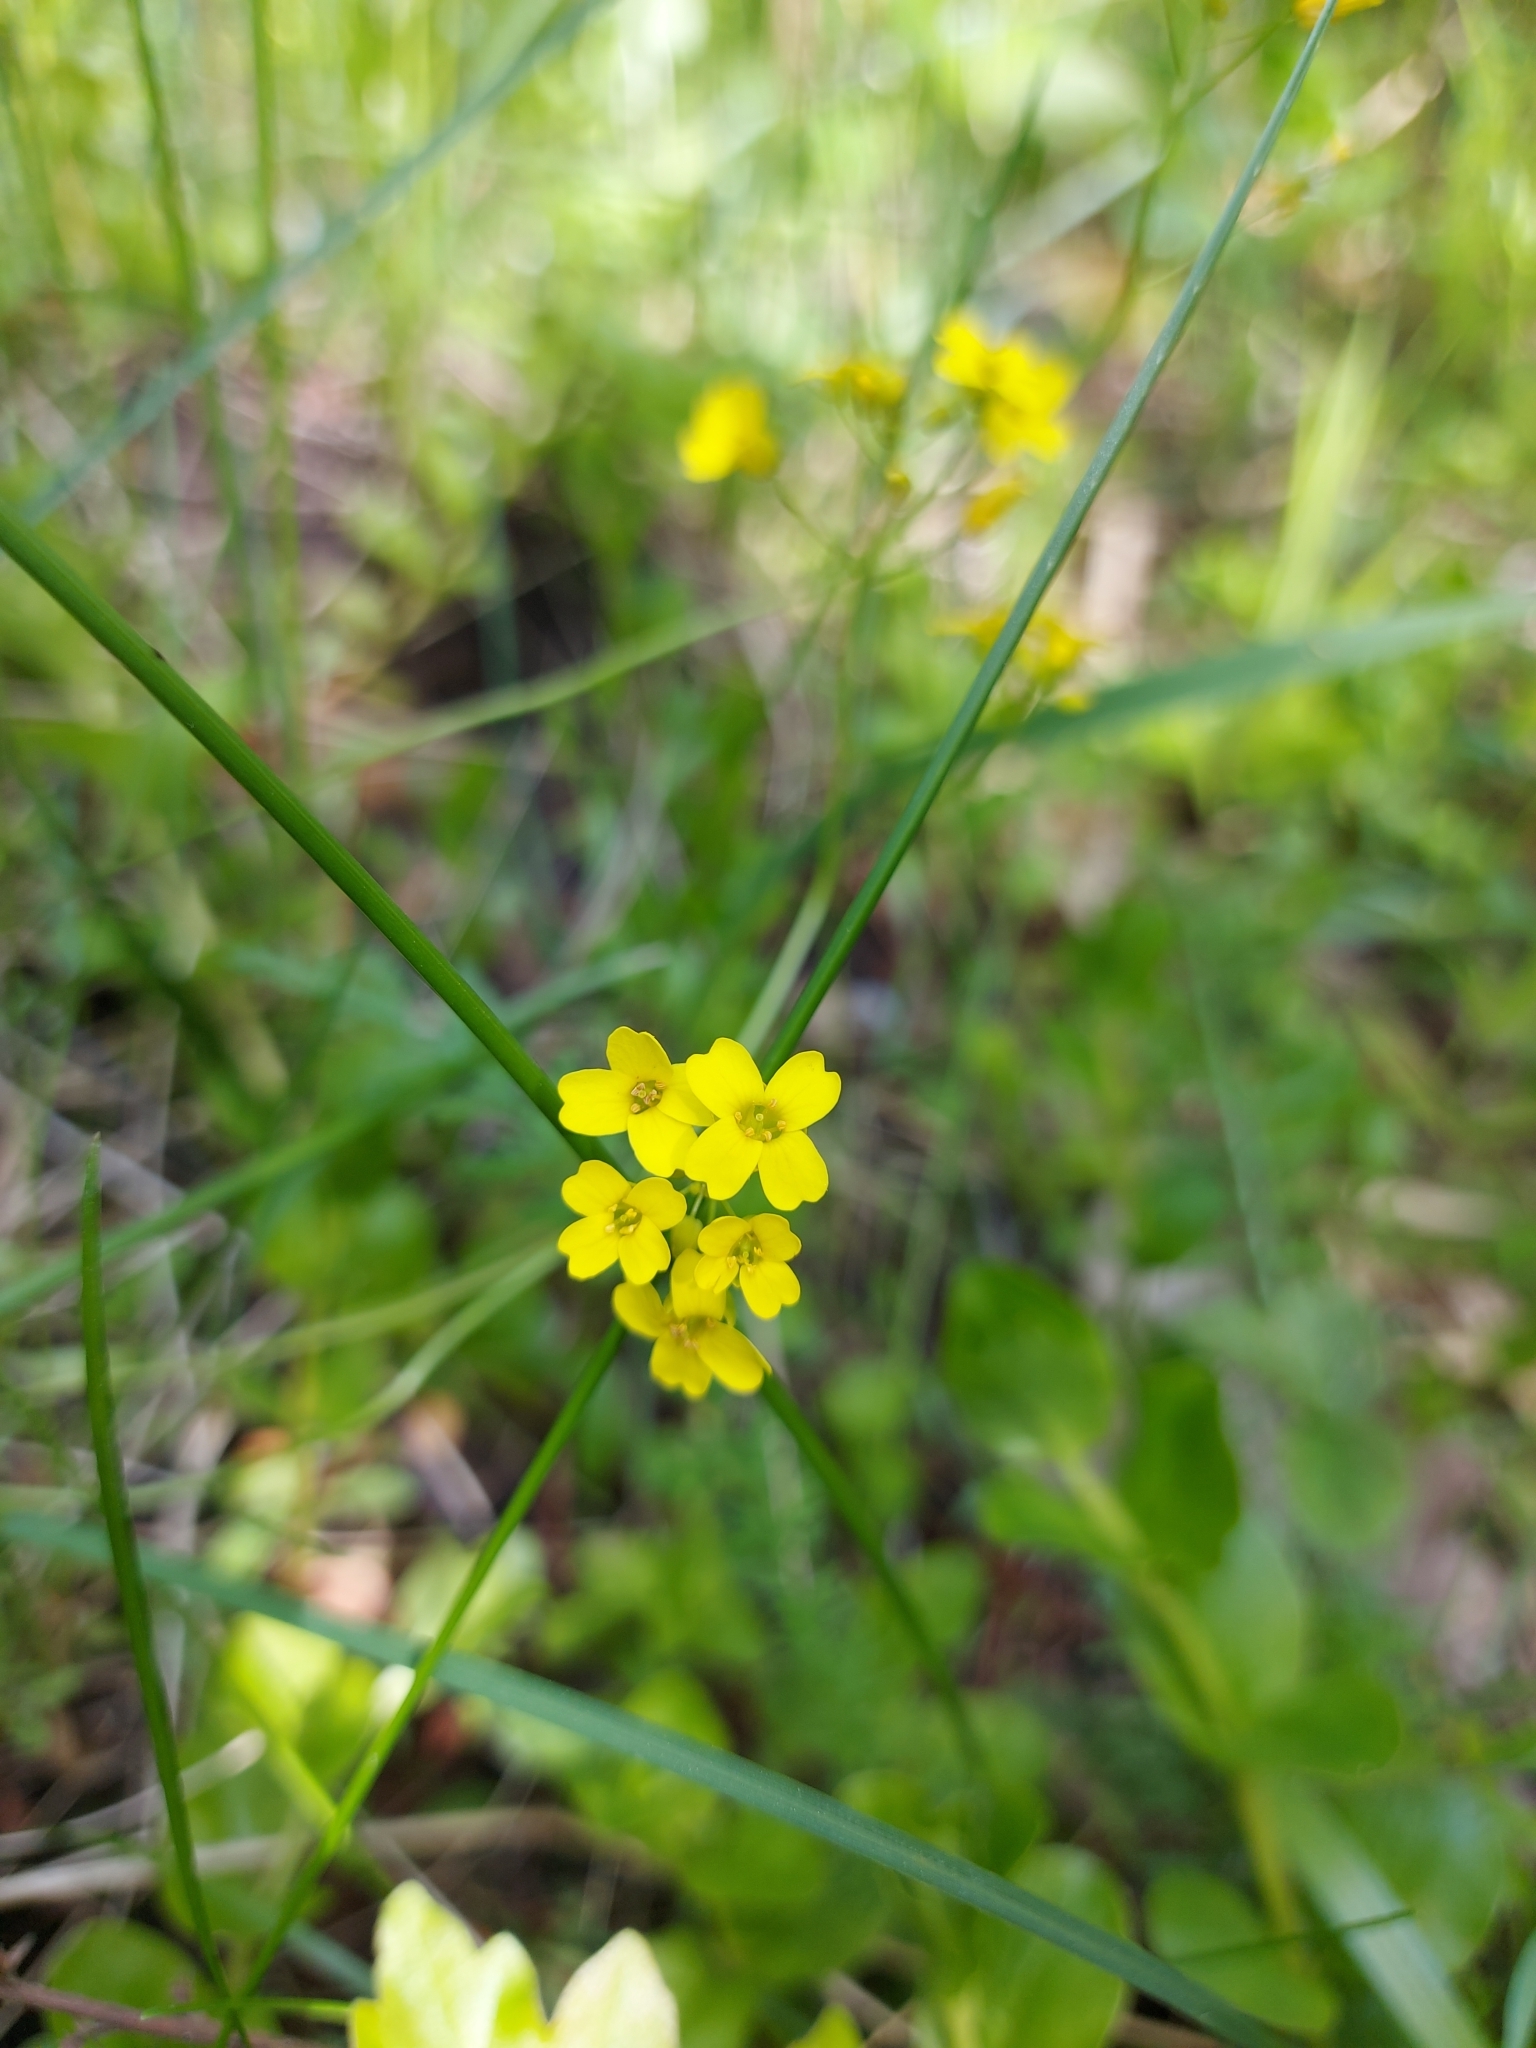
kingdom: Plantae
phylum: Tracheophyta
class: Magnoliopsida
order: Brassicales
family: Brassicaceae
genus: Draba
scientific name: Draba sibirica
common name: Siberian draba
